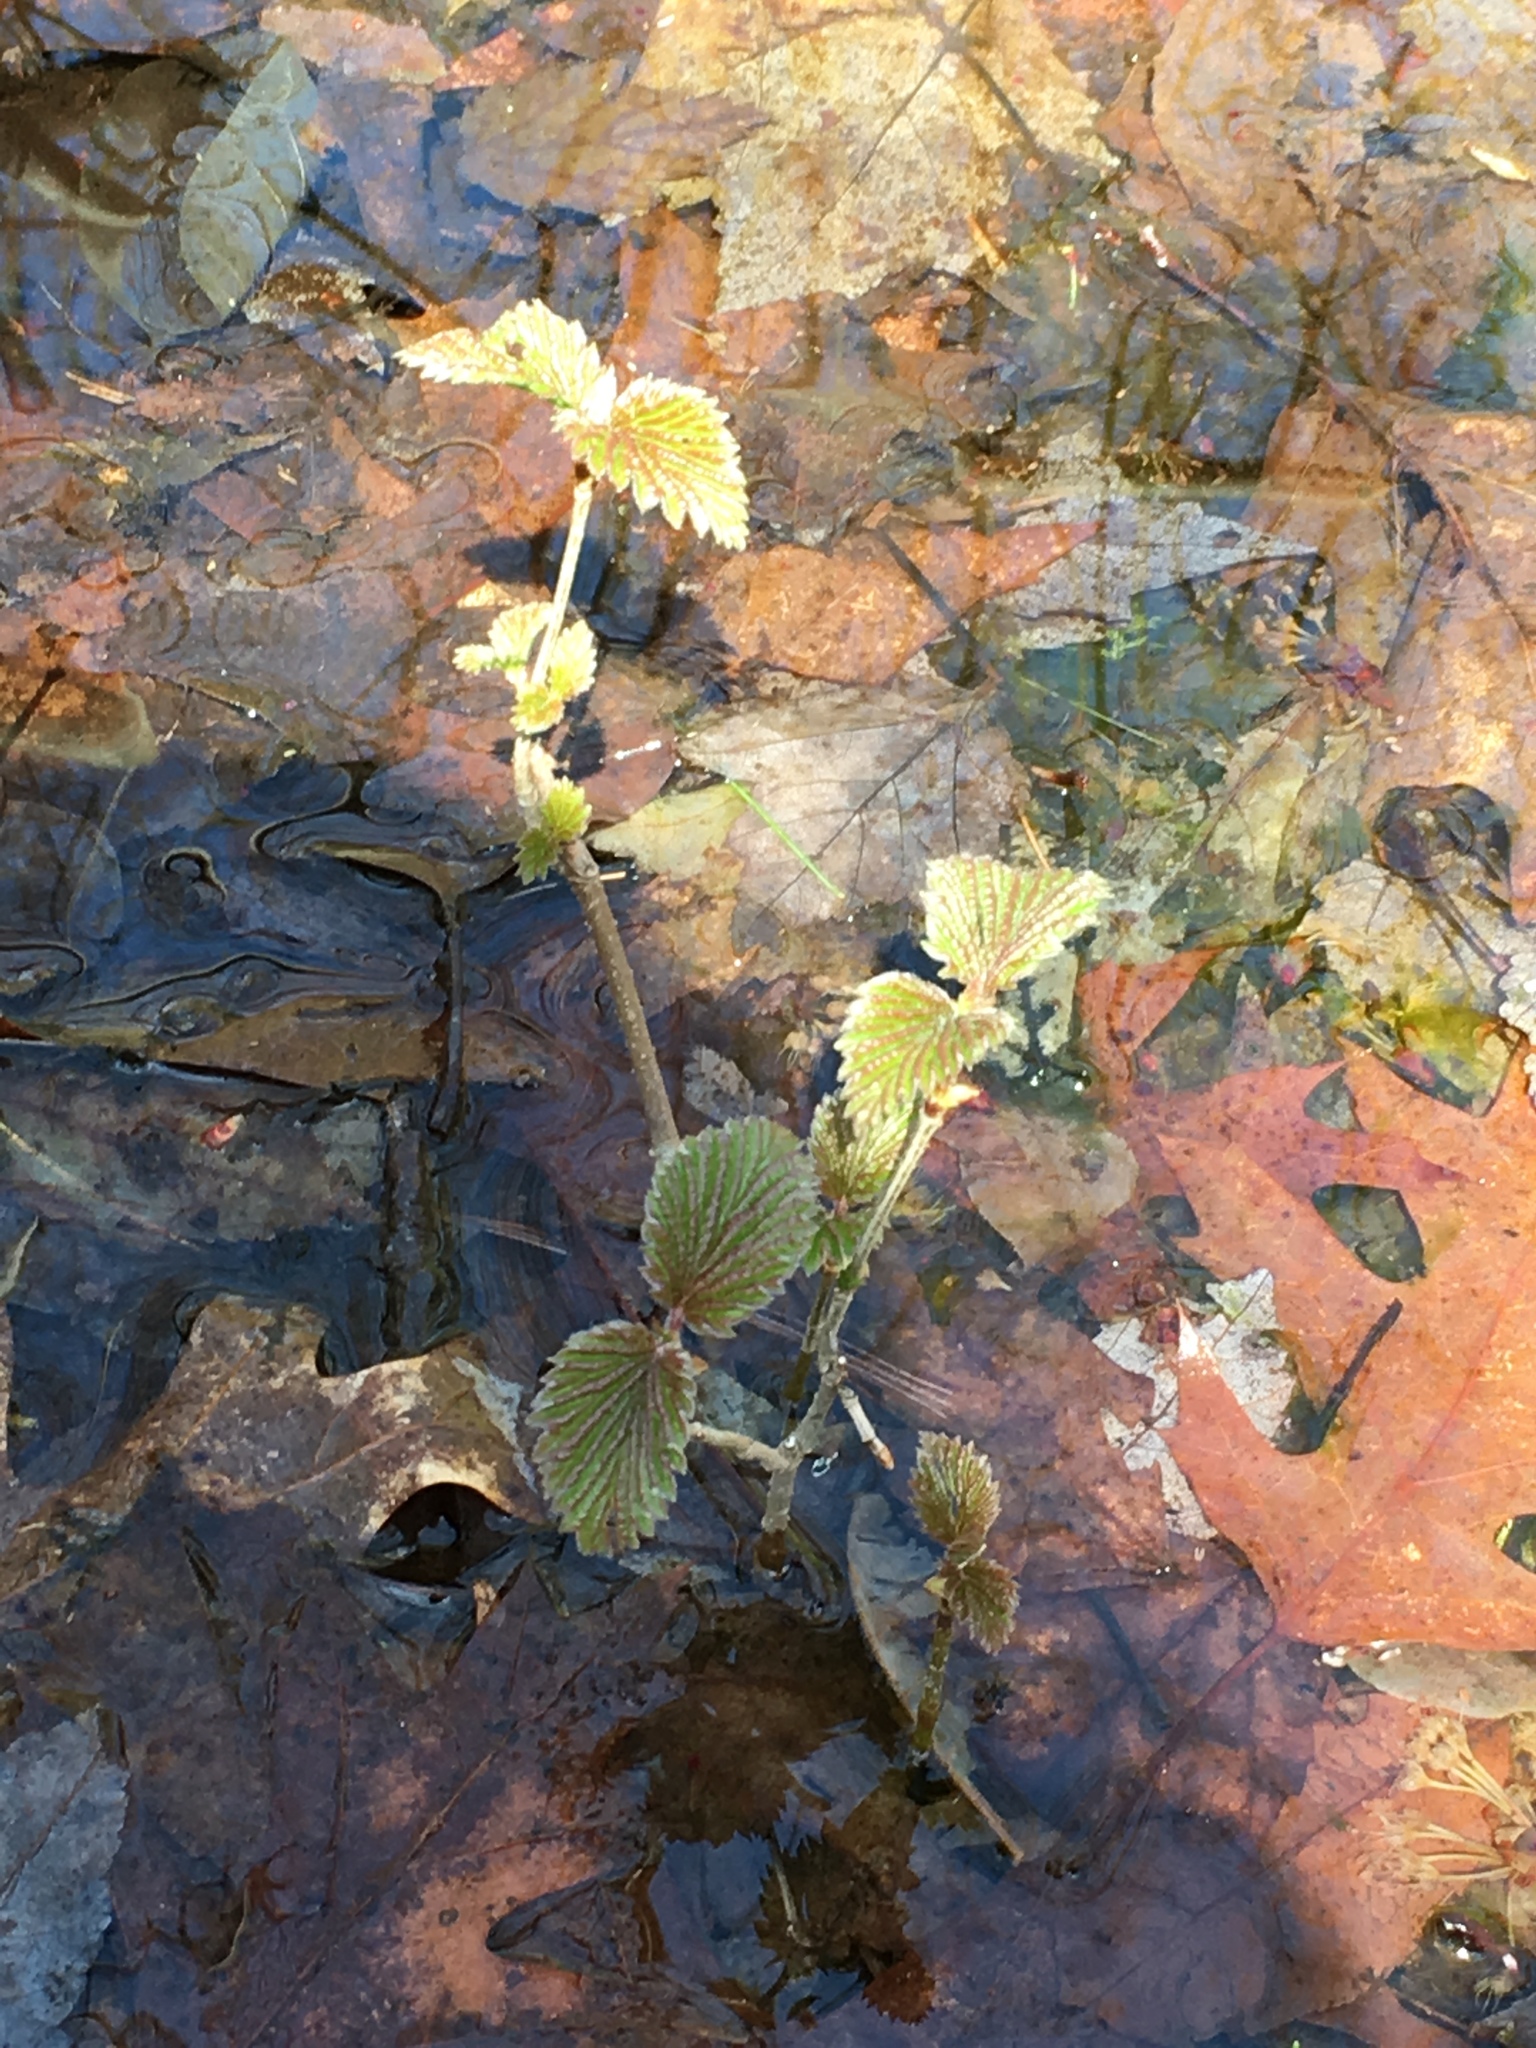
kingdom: Plantae
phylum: Tracheophyta
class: Magnoliopsida
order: Dipsacales
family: Viburnaceae
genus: Viburnum
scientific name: Viburnum recognitum
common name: Northern arrow-wood
